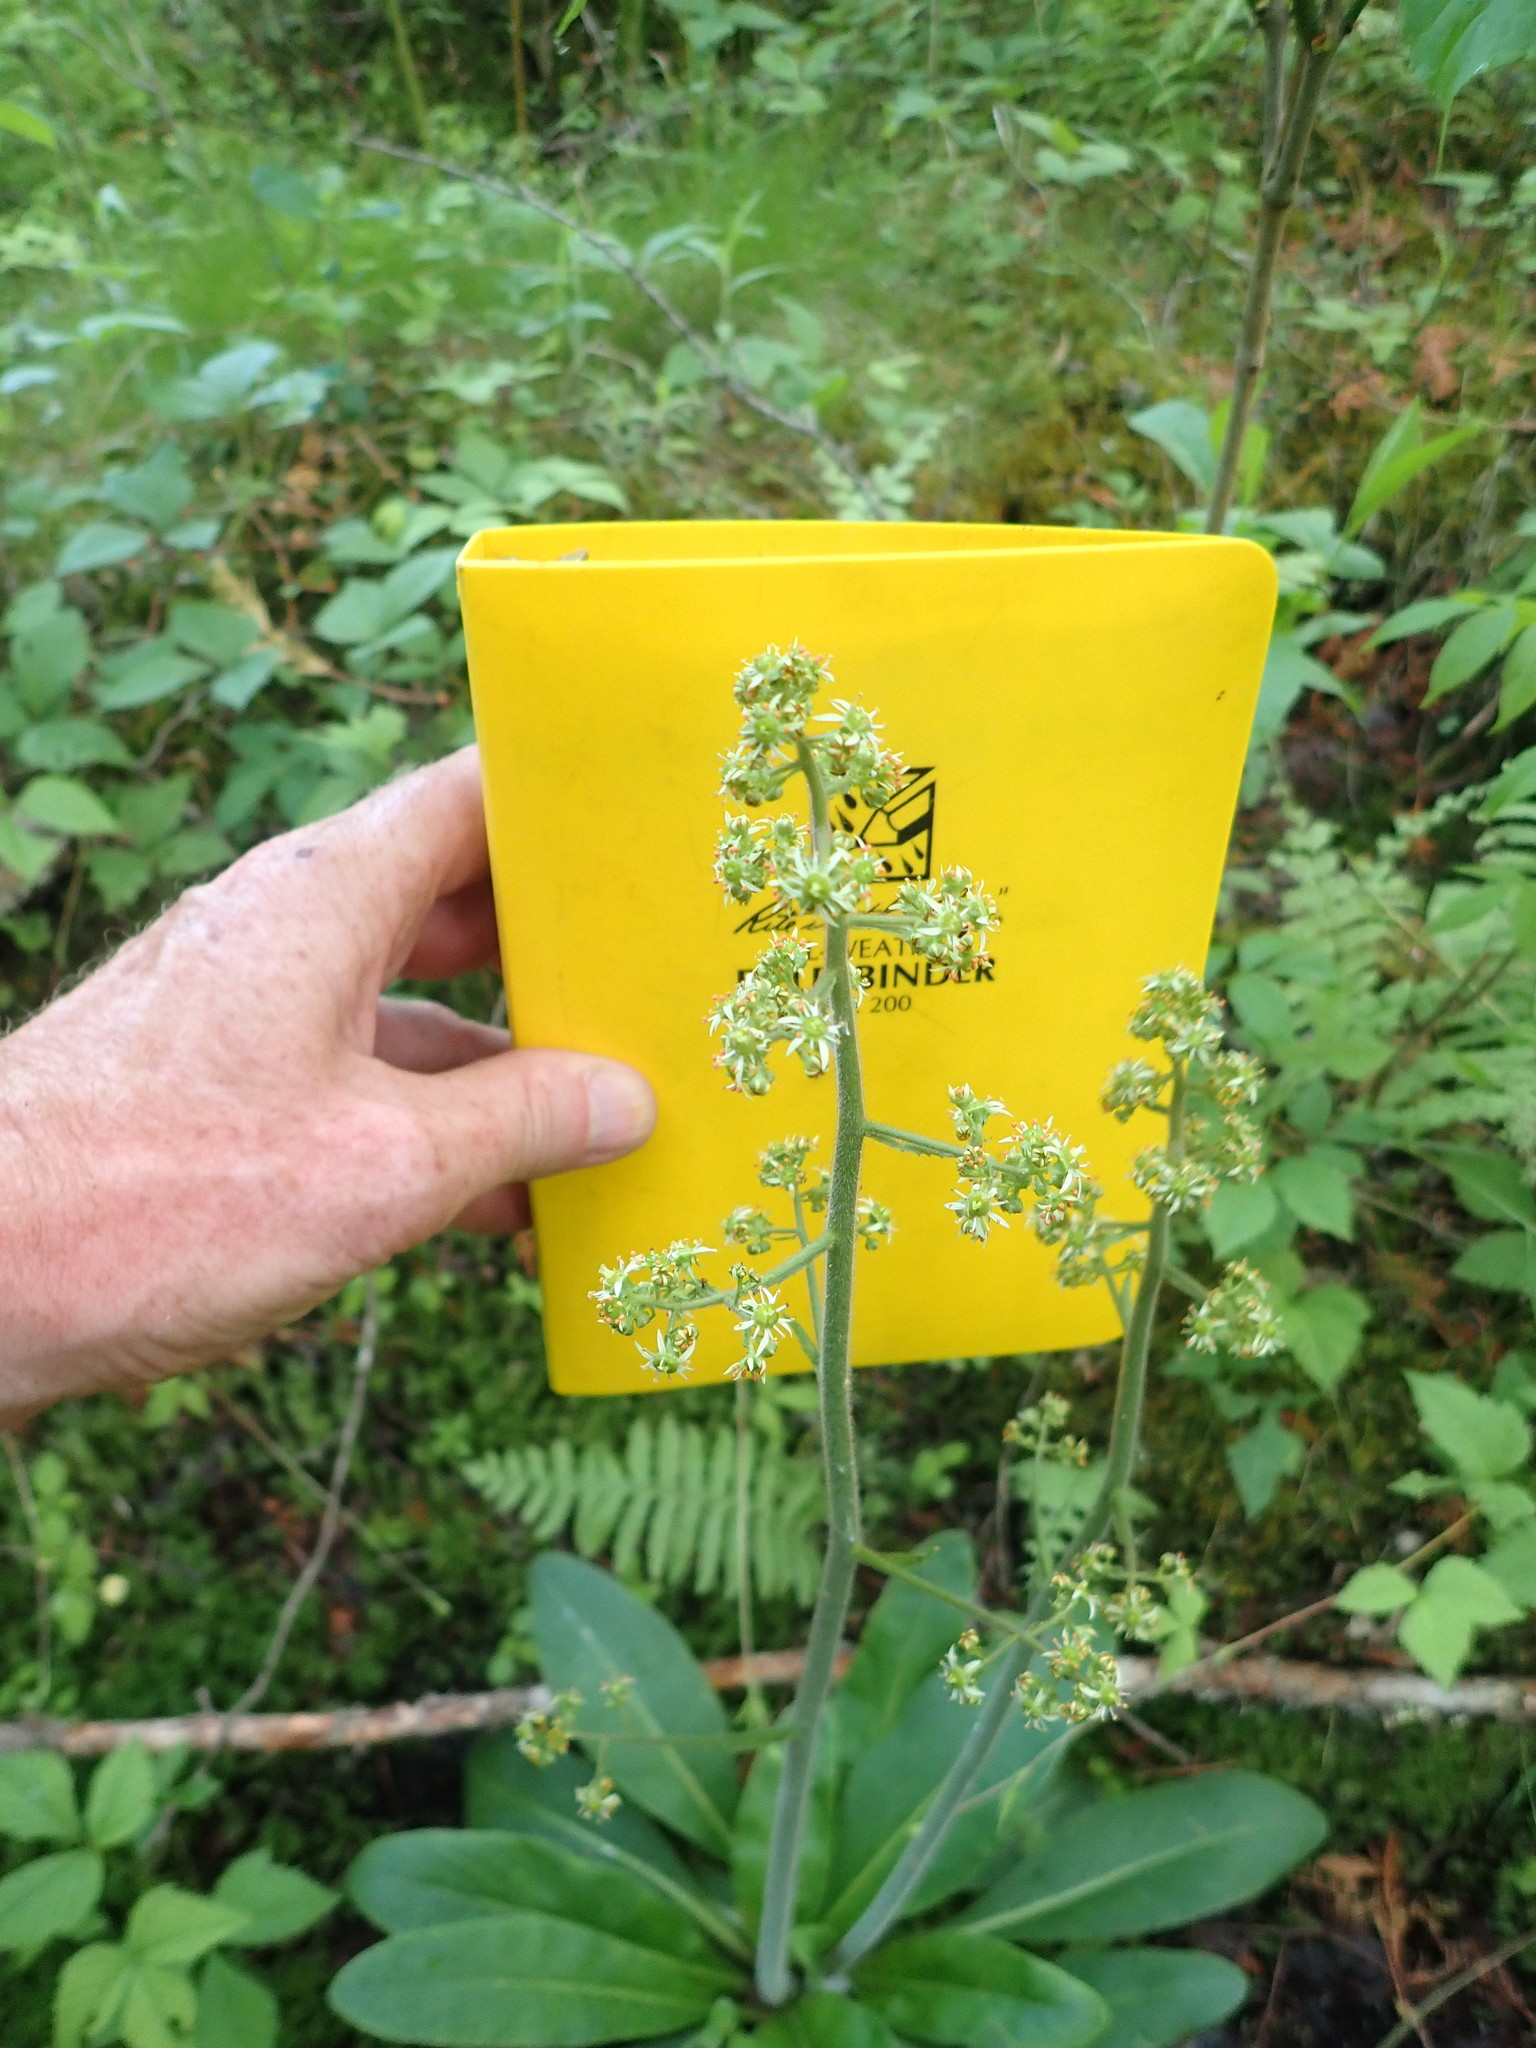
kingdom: Plantae
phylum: Tracheophyta
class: Magnoliopsida
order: Saxifragales
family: Saxifragaceae
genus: Micranthes
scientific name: Micranthes pensylvanica
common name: Marsh saxifrage
